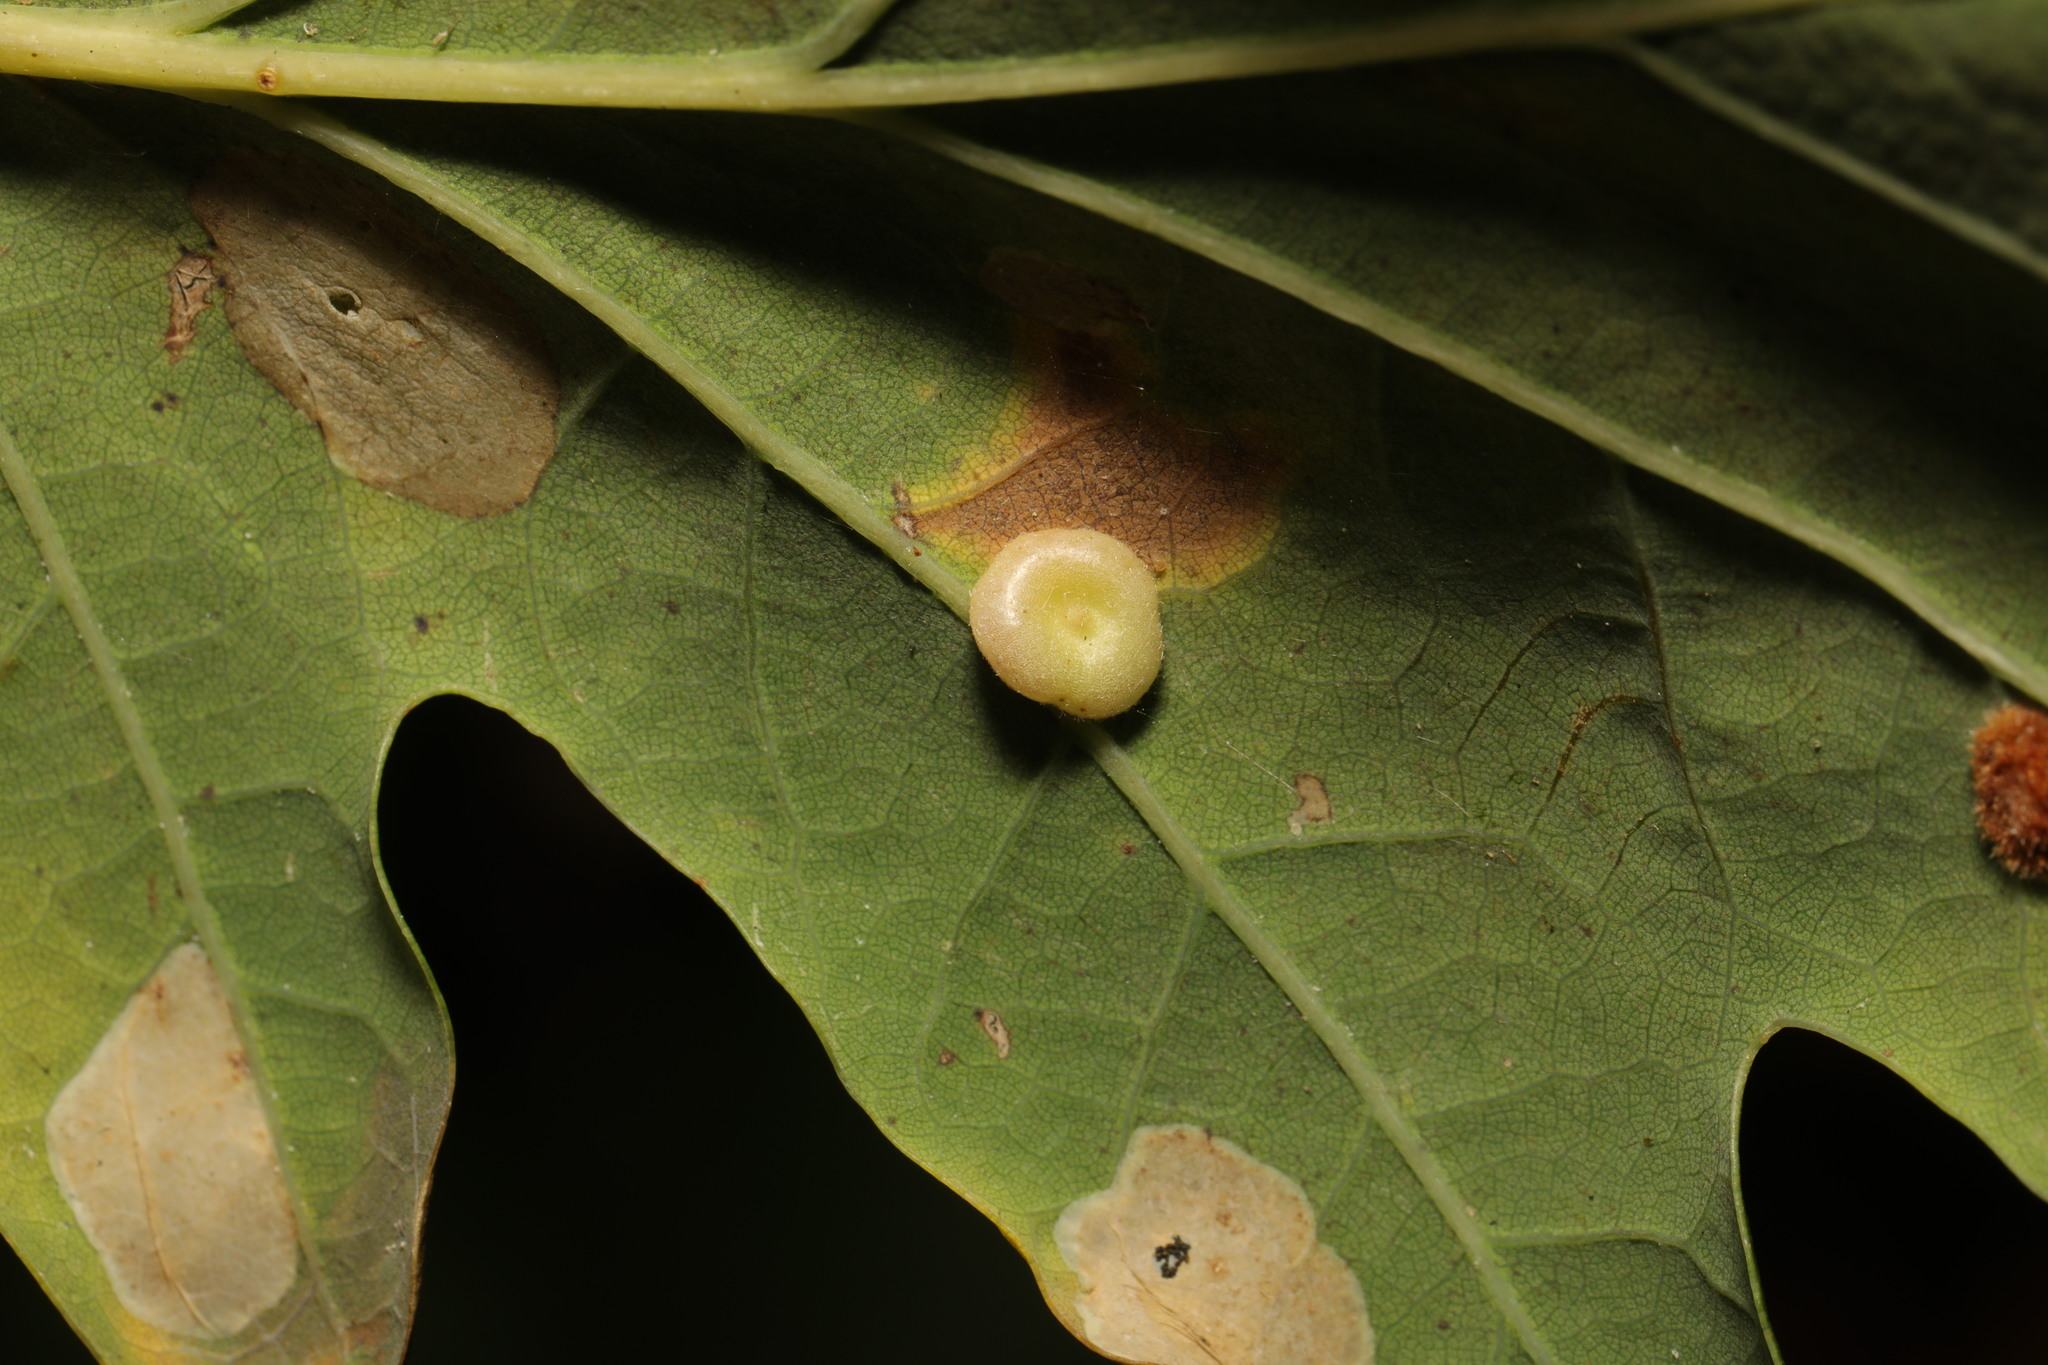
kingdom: Animalia
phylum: Arthropoda
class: Insecta
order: Hymenoptera
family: Cynipidae
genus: Neuroterus
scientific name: Neuroterus albipes
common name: Smooth spangle gall
